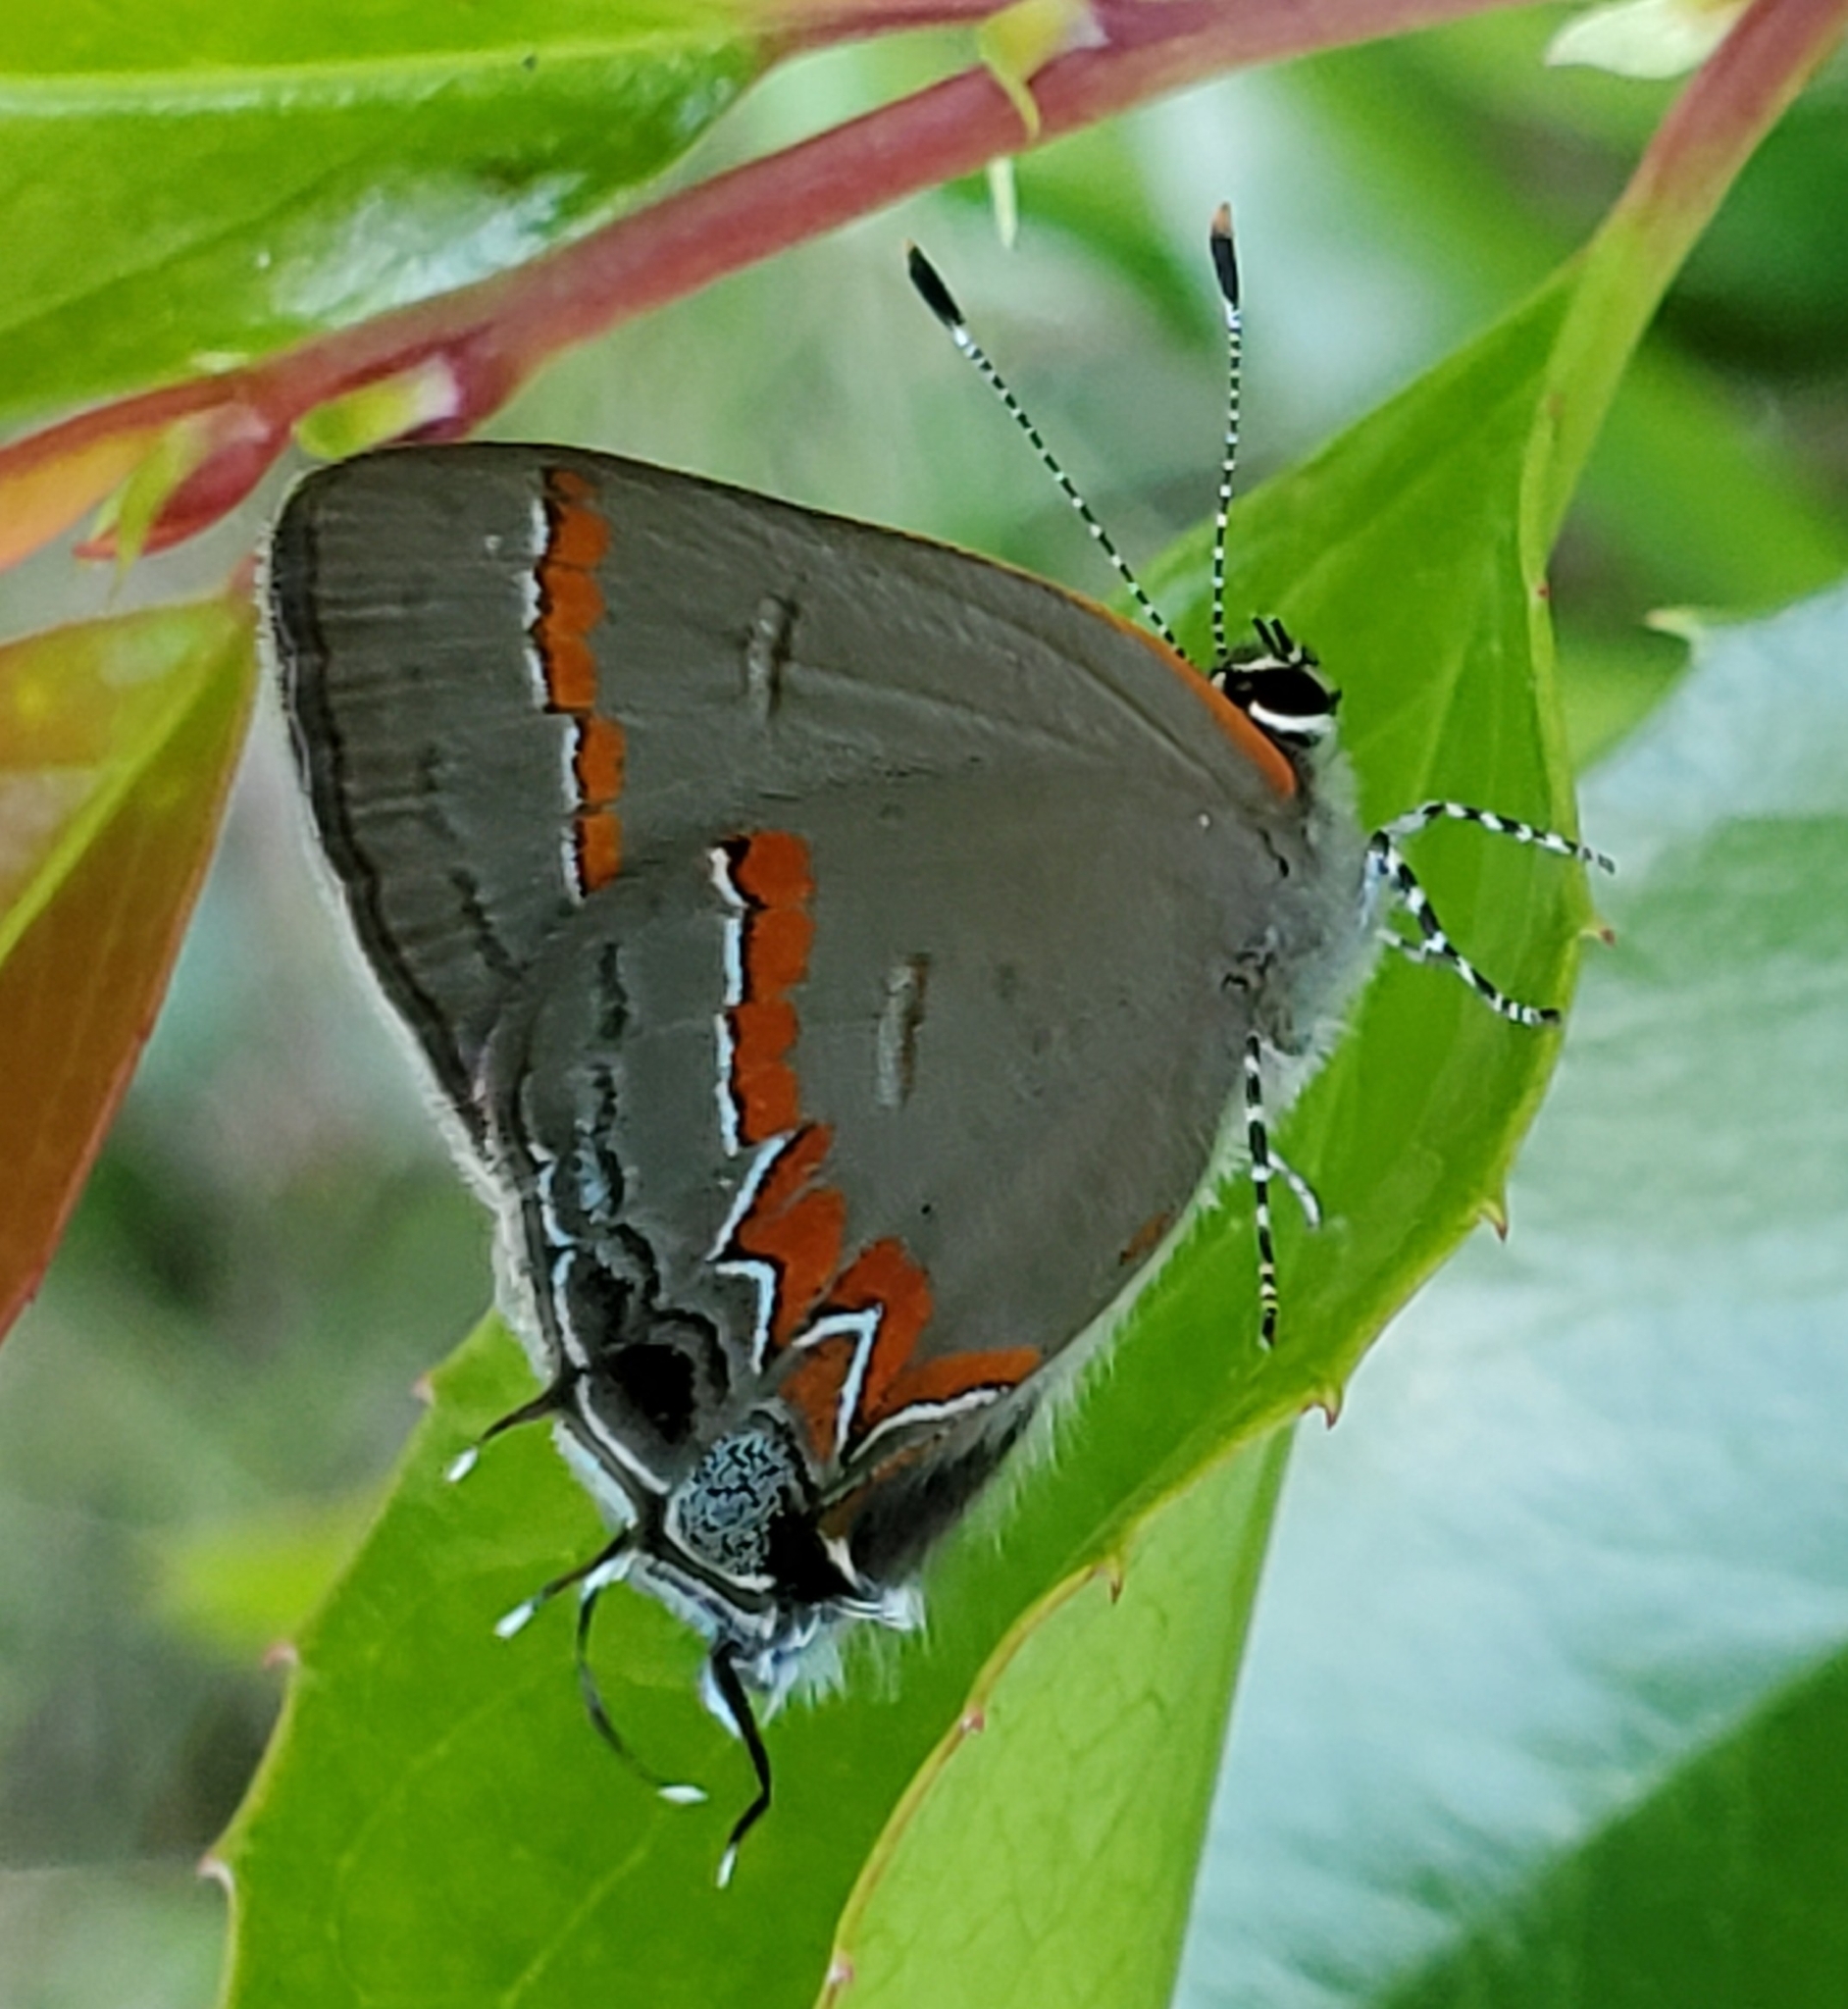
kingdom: Animalia
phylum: Arthropoda
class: Insecta
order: Lepidoptera
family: Lycaenidae
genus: Calycopis
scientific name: Calycopis cecrops
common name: Red-banded hairstreak
